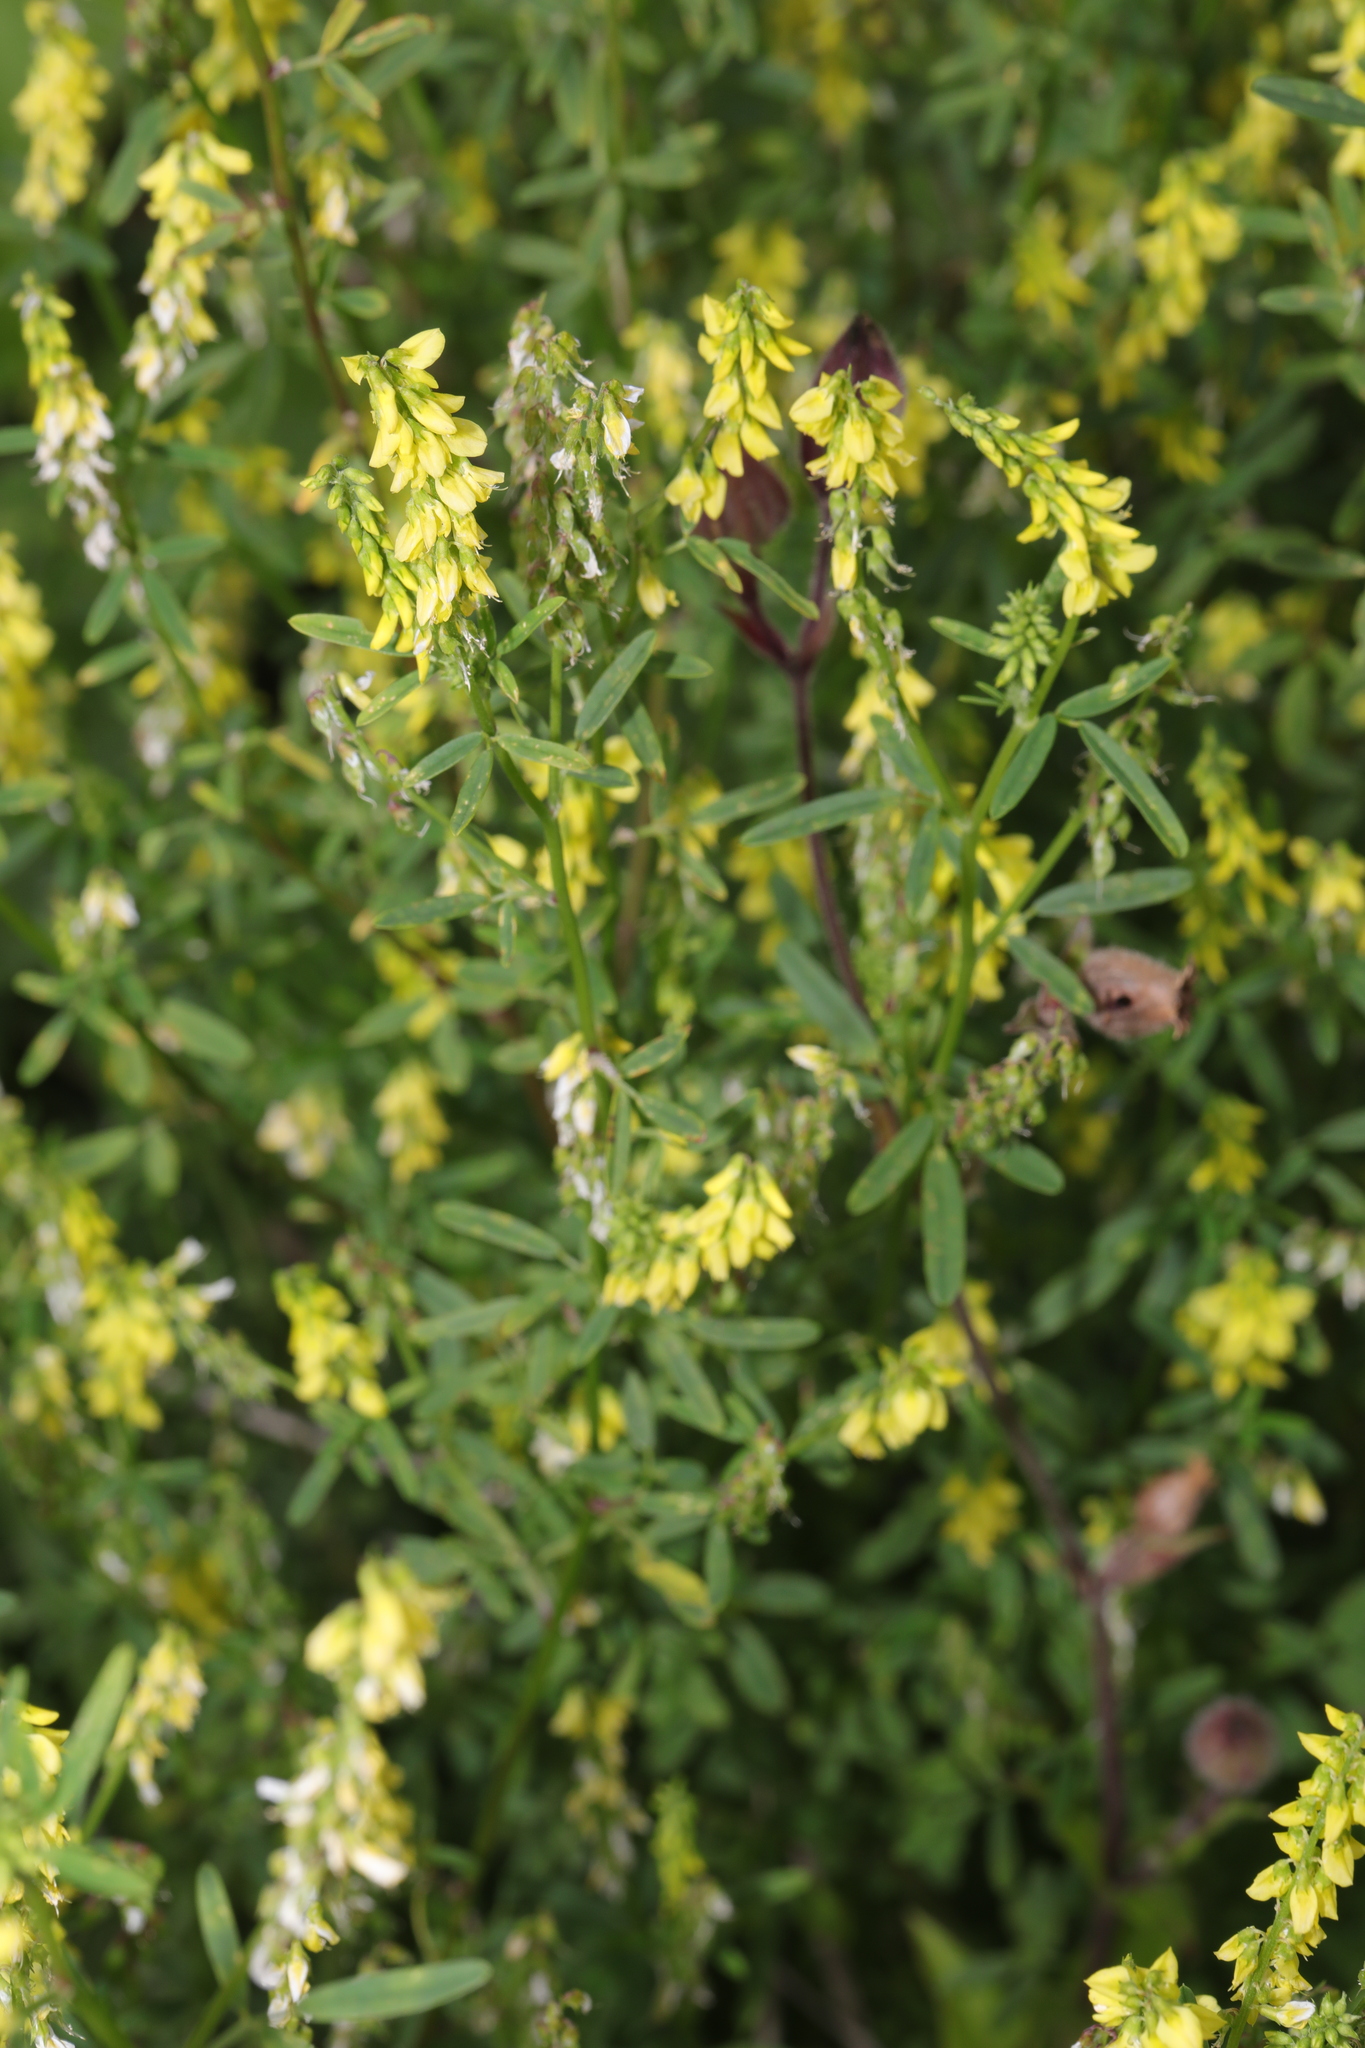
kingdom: Plantae
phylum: Tracheophyta
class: Magnoliopsida
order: Fabales
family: Fabaceae
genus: Melilotus
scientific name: Melilotus officinalis
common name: Sweetclover
